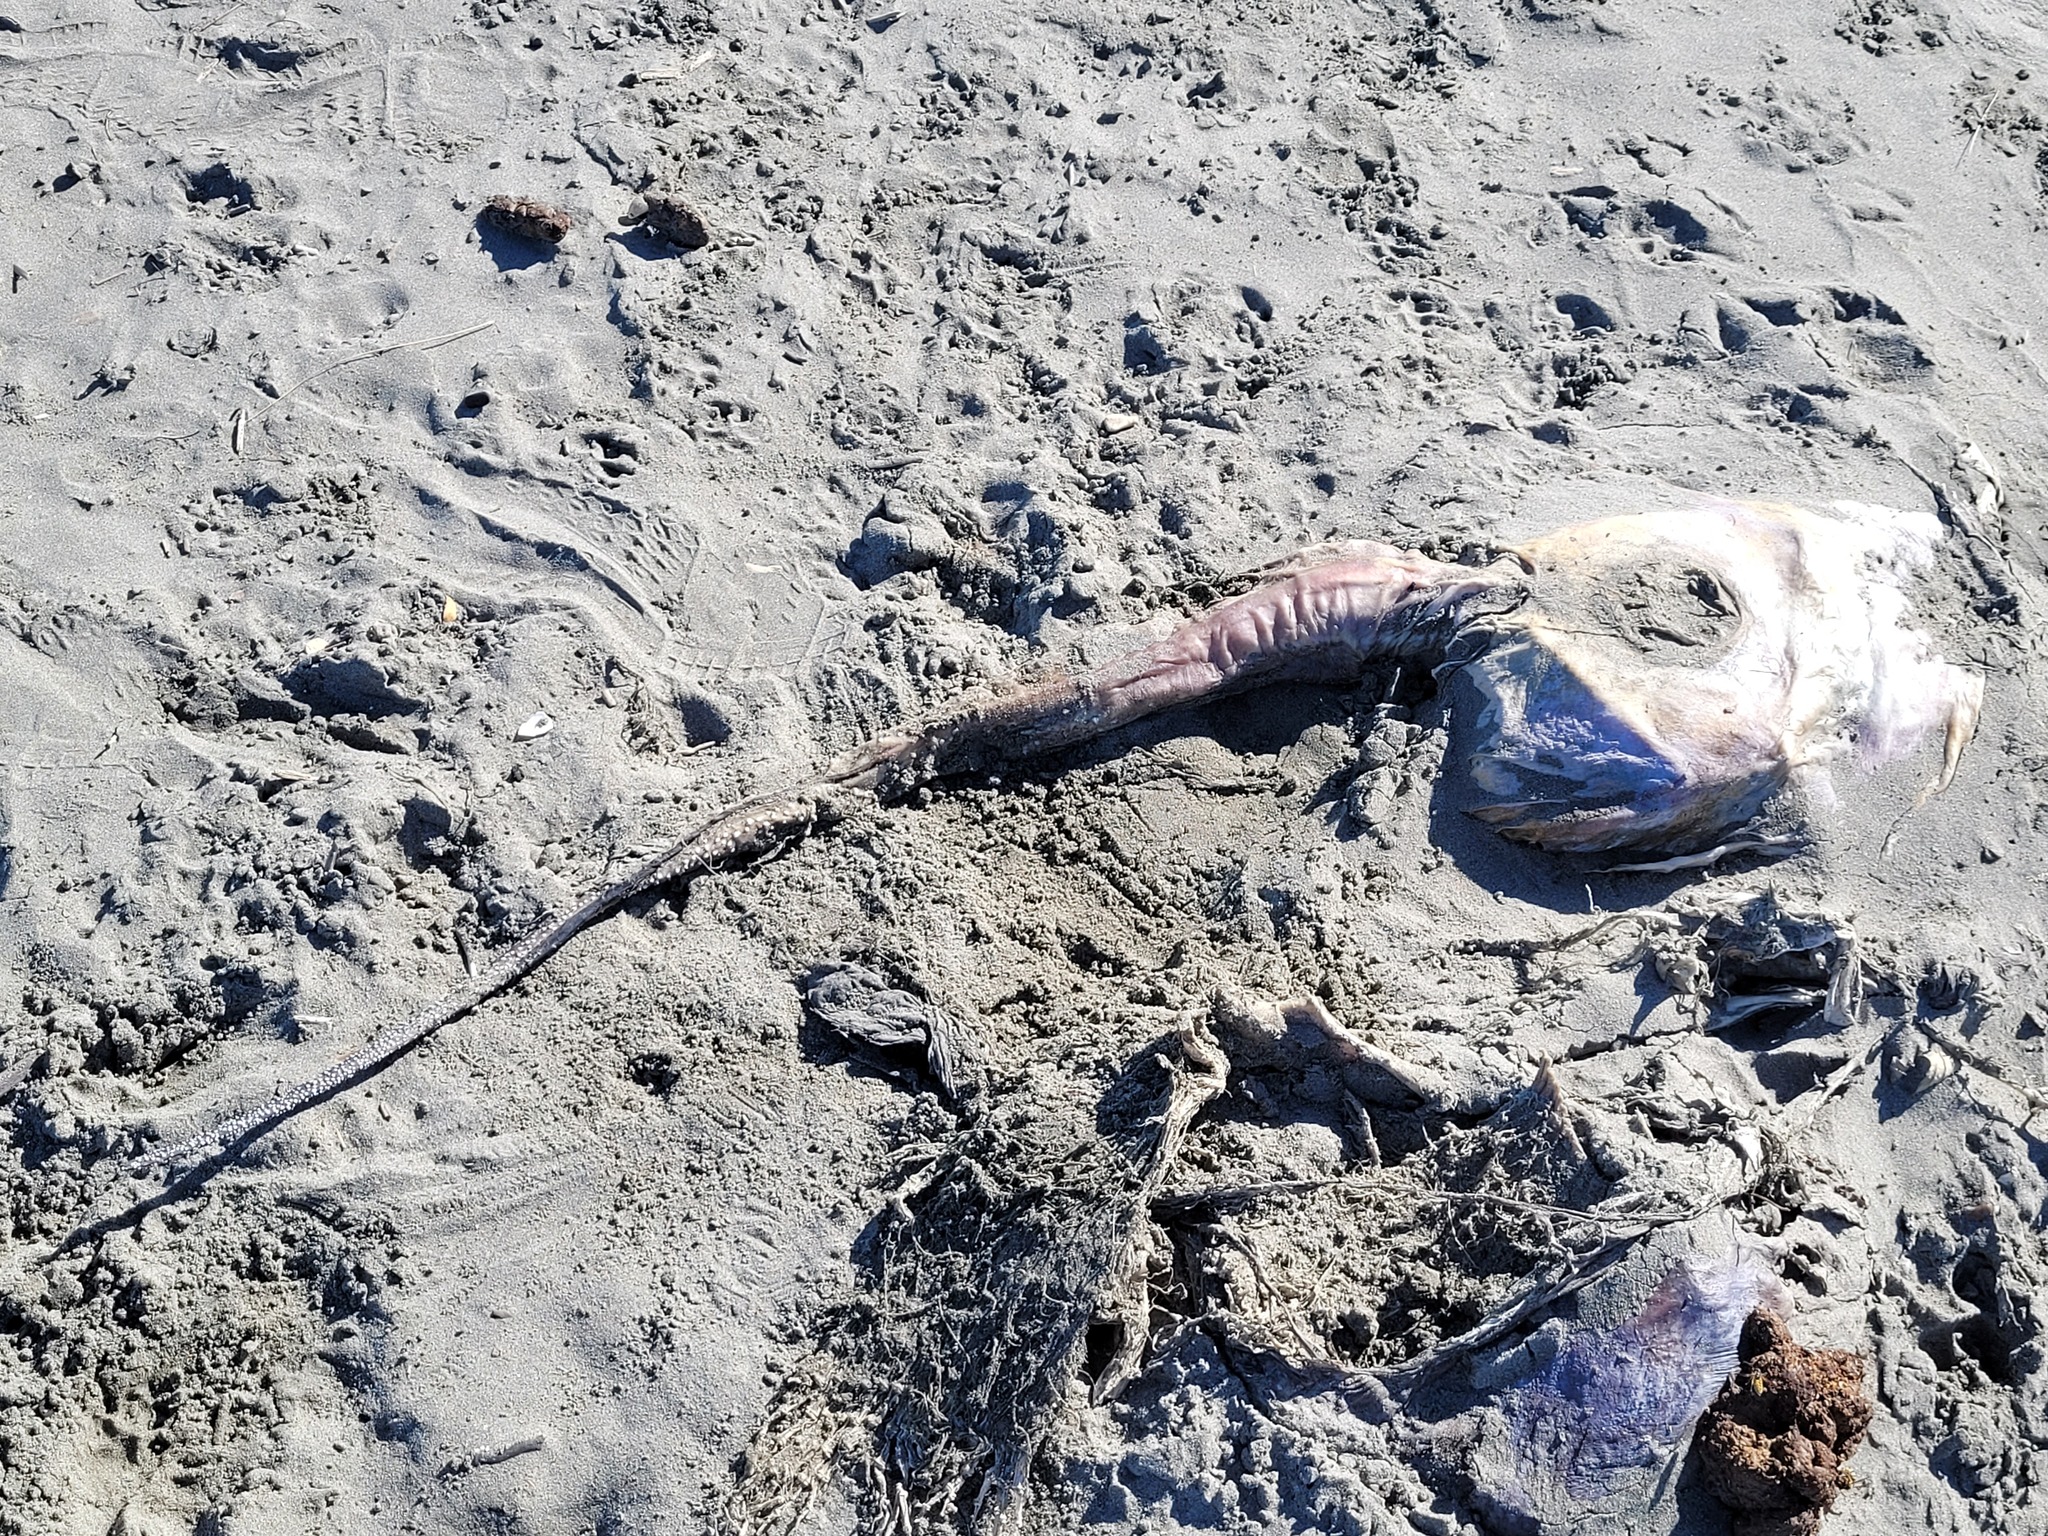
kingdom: Animalia
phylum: Chordata
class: Elasmobranchii
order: Myliobatiformes
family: Dasyatidae
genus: Bathytoshia
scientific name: Bathytoshia lata
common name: Brown stingray
